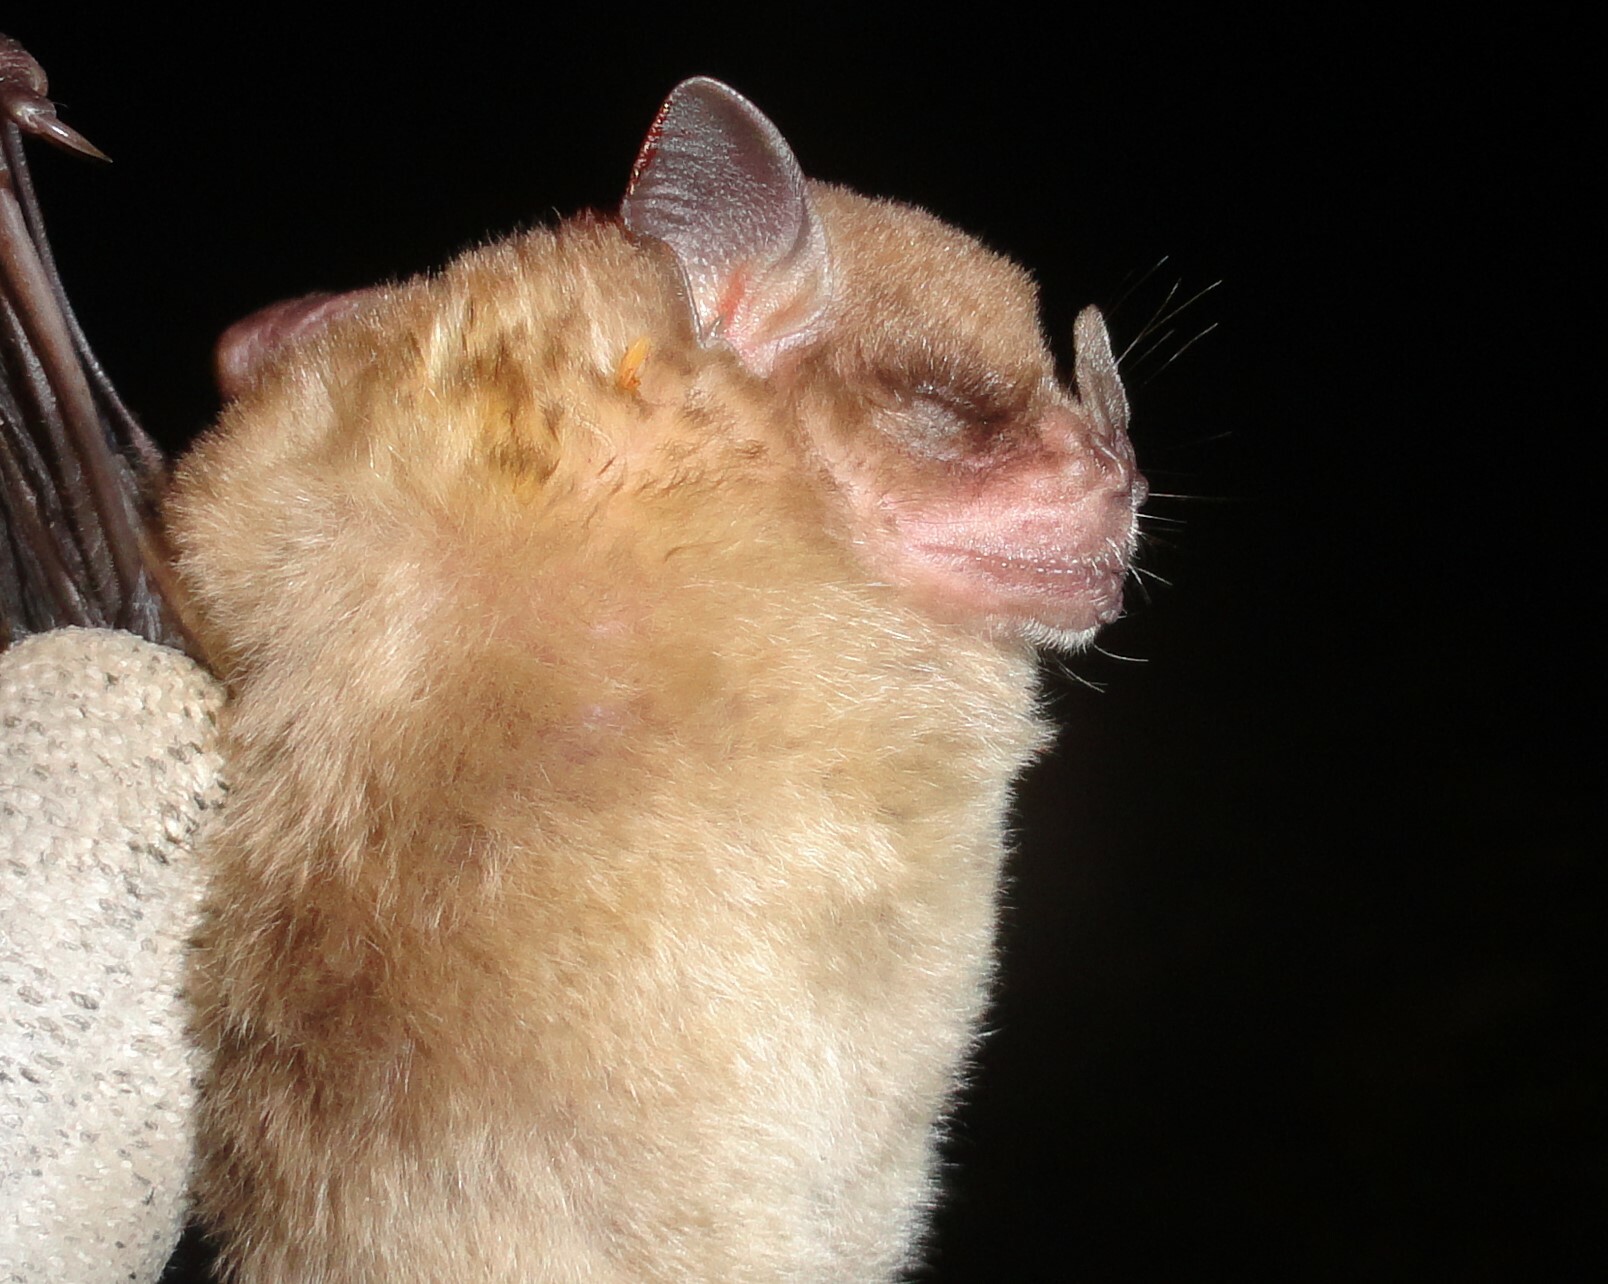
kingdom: Animalia
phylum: Chordata
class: Mammalia
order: Chiroptera
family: Phyllostomidae
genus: Sturnira
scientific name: Sturnira lilium
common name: Little yellow-shouldered bat
